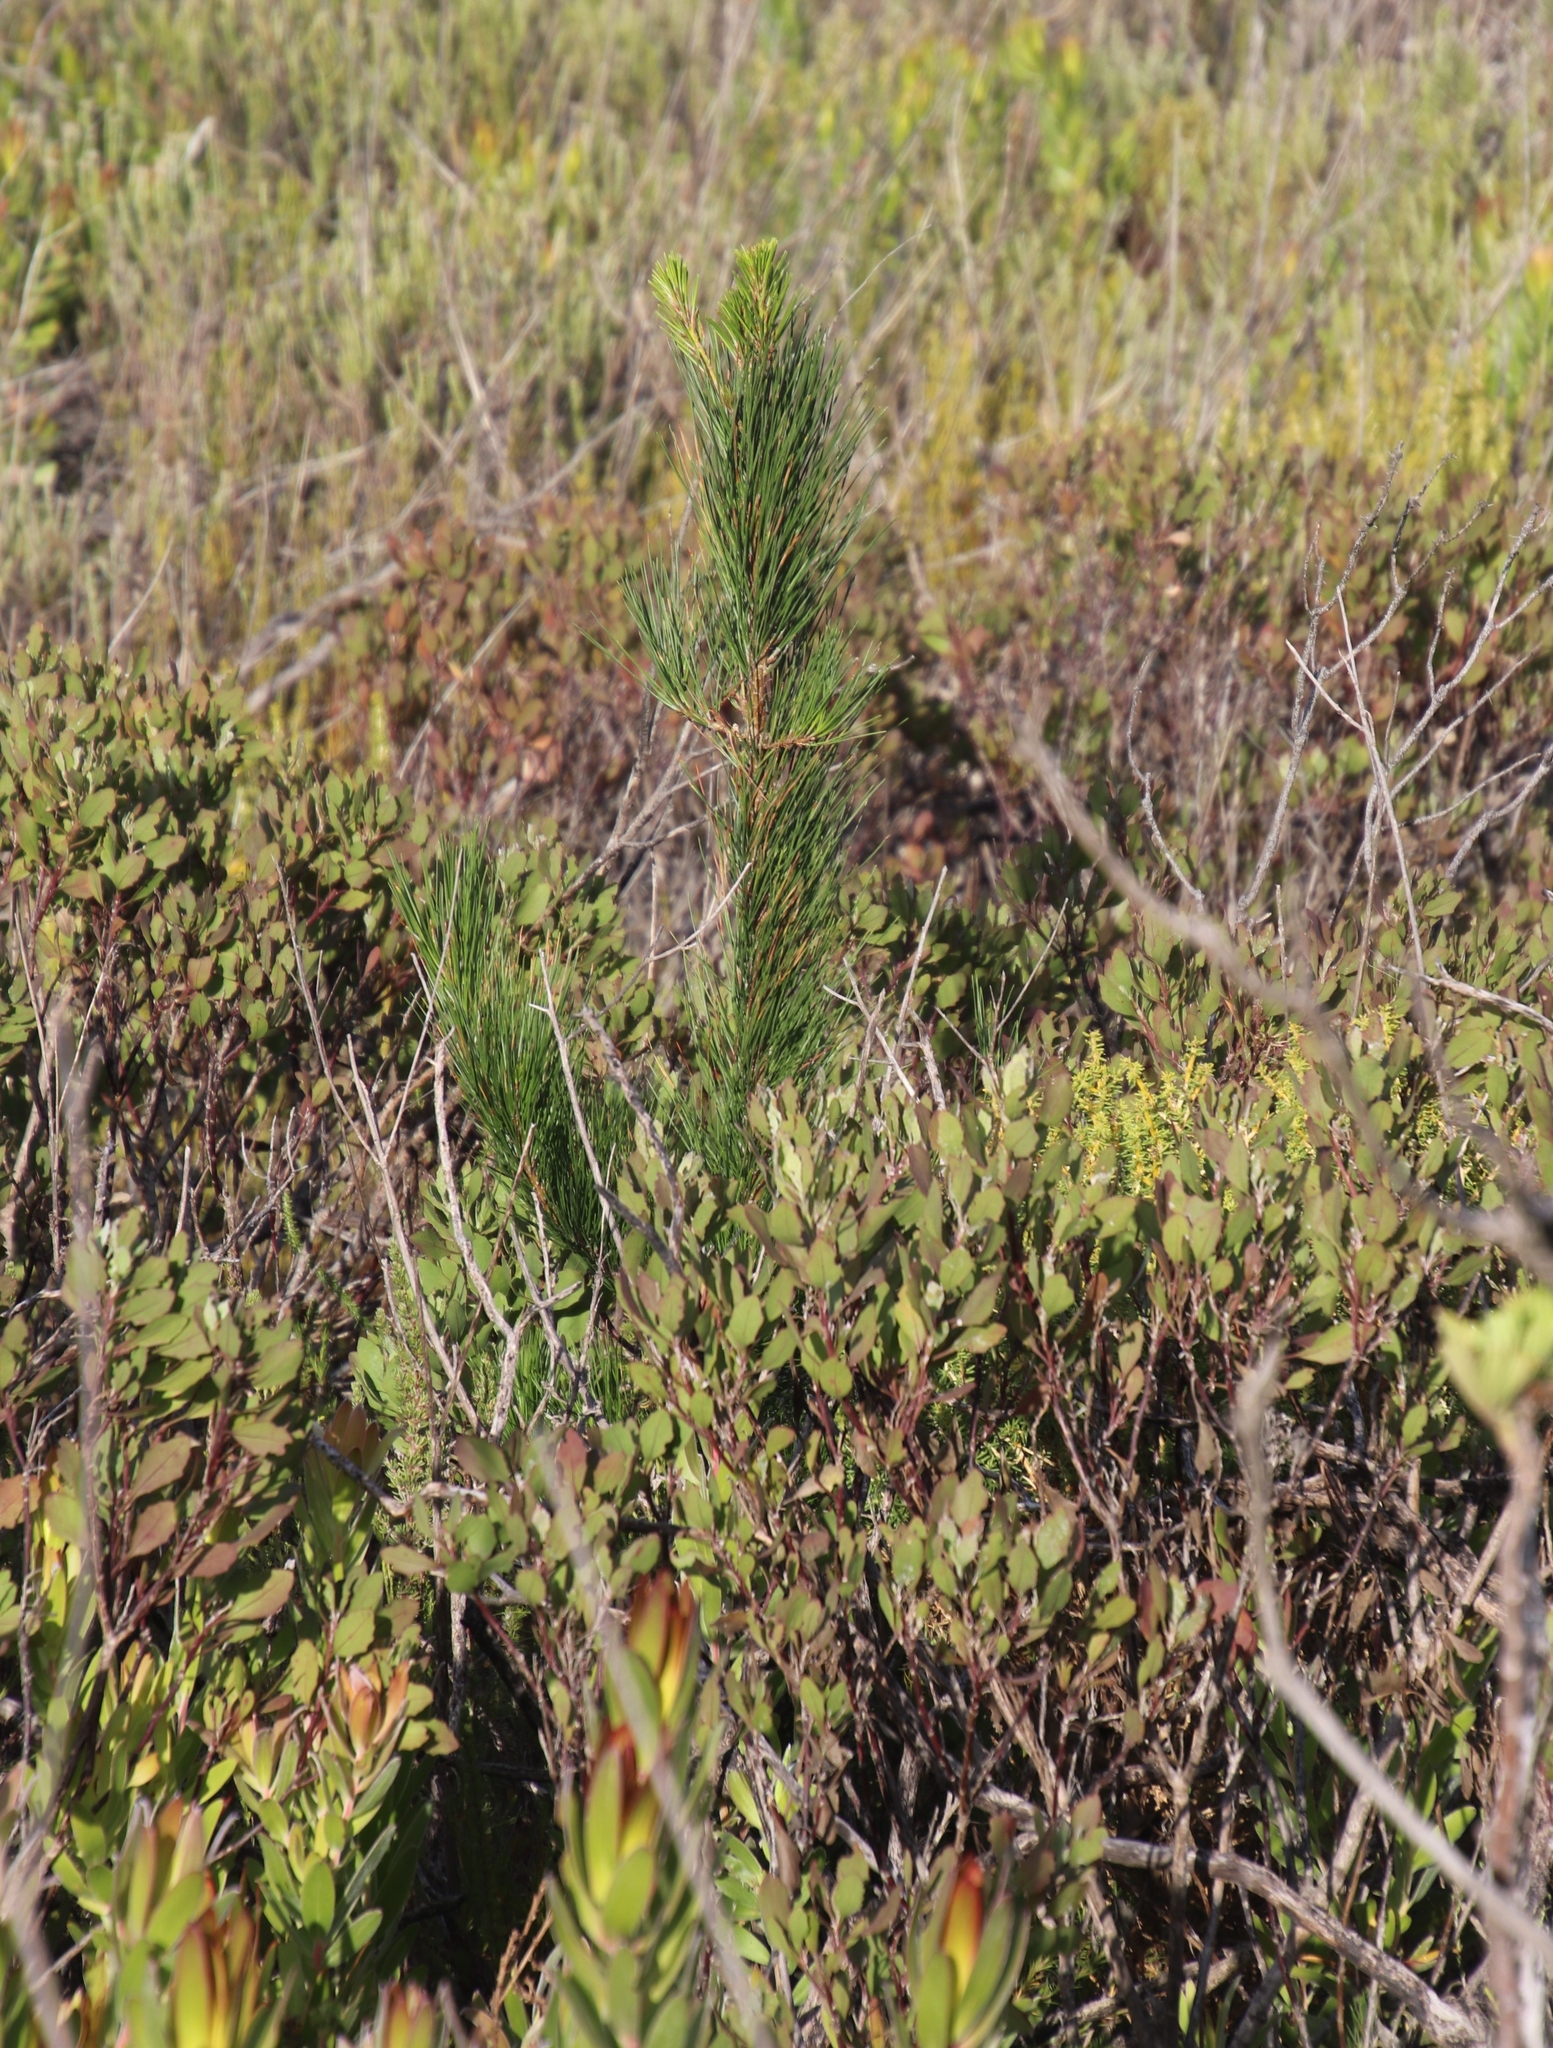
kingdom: Plantae
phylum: Tracheophyta
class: Pinopsida
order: Pinales
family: Pinaceae
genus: Pinus
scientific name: Pinus radiata
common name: Monterey pine
